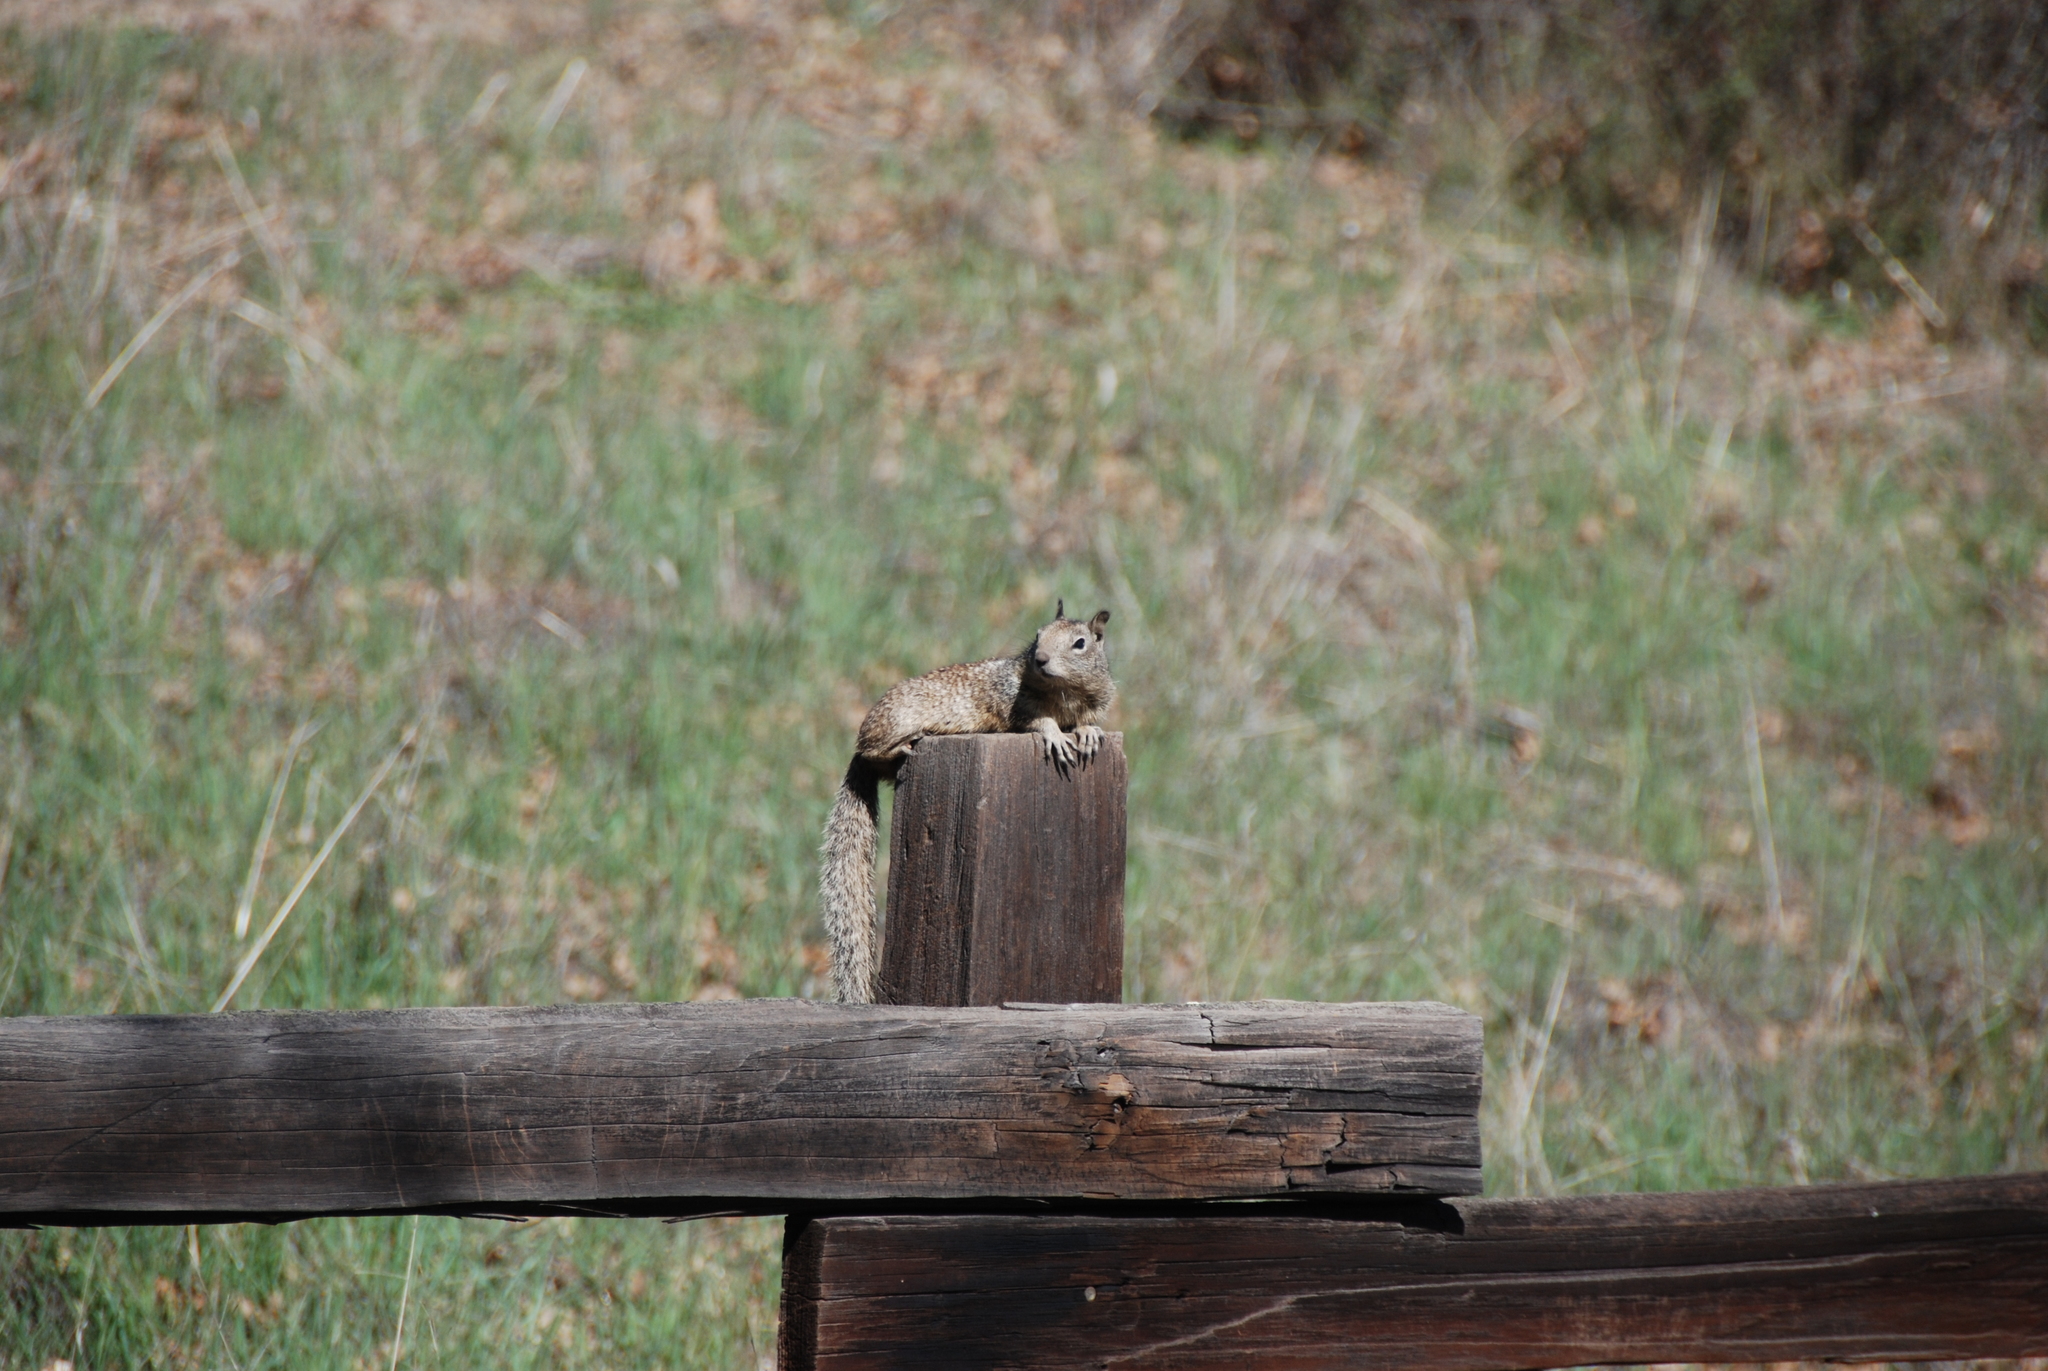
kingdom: Animalia
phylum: Chordata
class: Mammalia
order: Rodentia
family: Sciuridae
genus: Otospermophilus
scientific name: Otospermophilus beecheyi
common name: California ground squirrel
